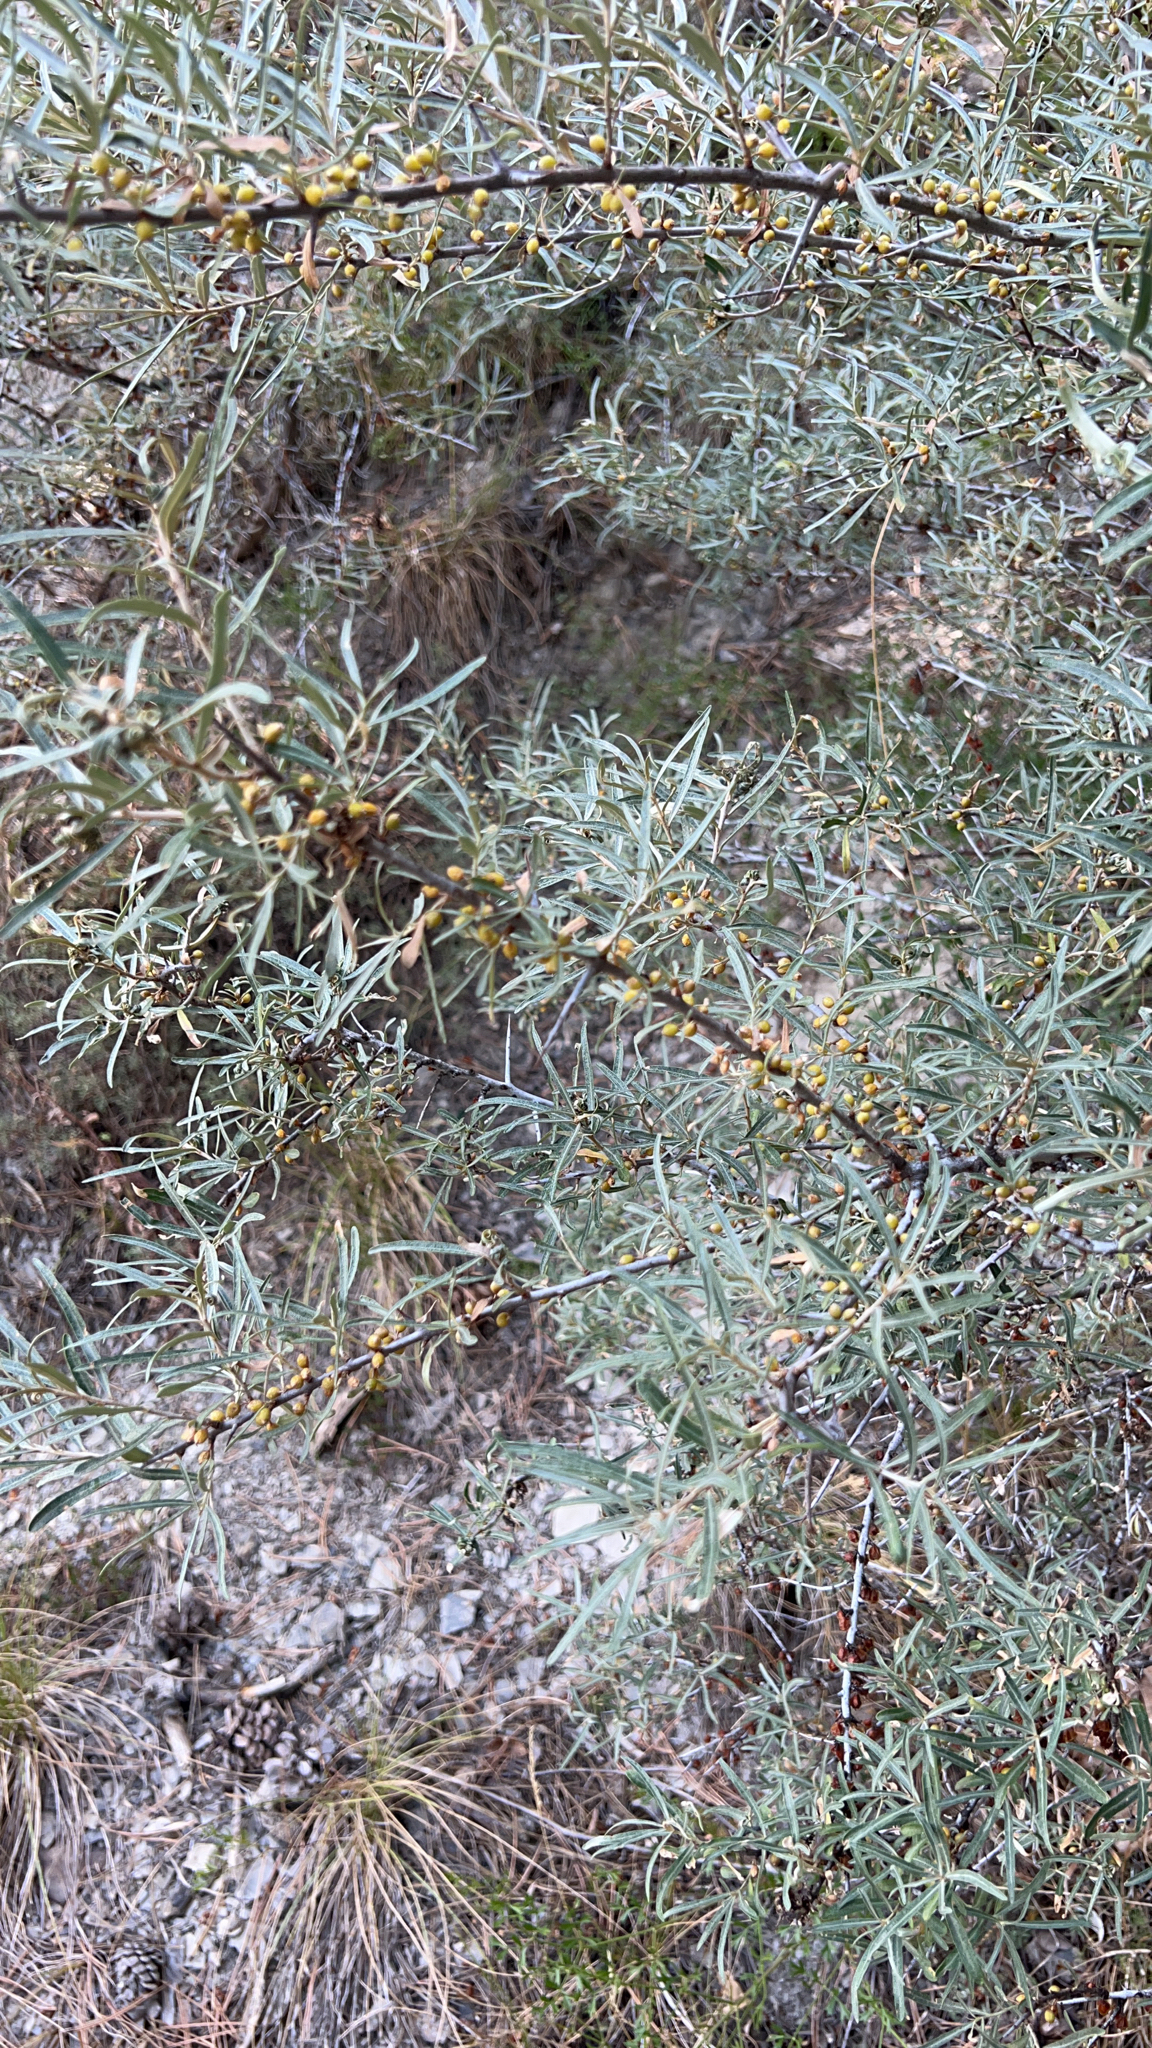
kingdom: Plantae
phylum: Tracheophyta
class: Magnoliopsida
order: Rosales
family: Elaeagnaceae
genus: Hippophae
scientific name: Hippophae rhamnoides
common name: Sea-buckthorn
